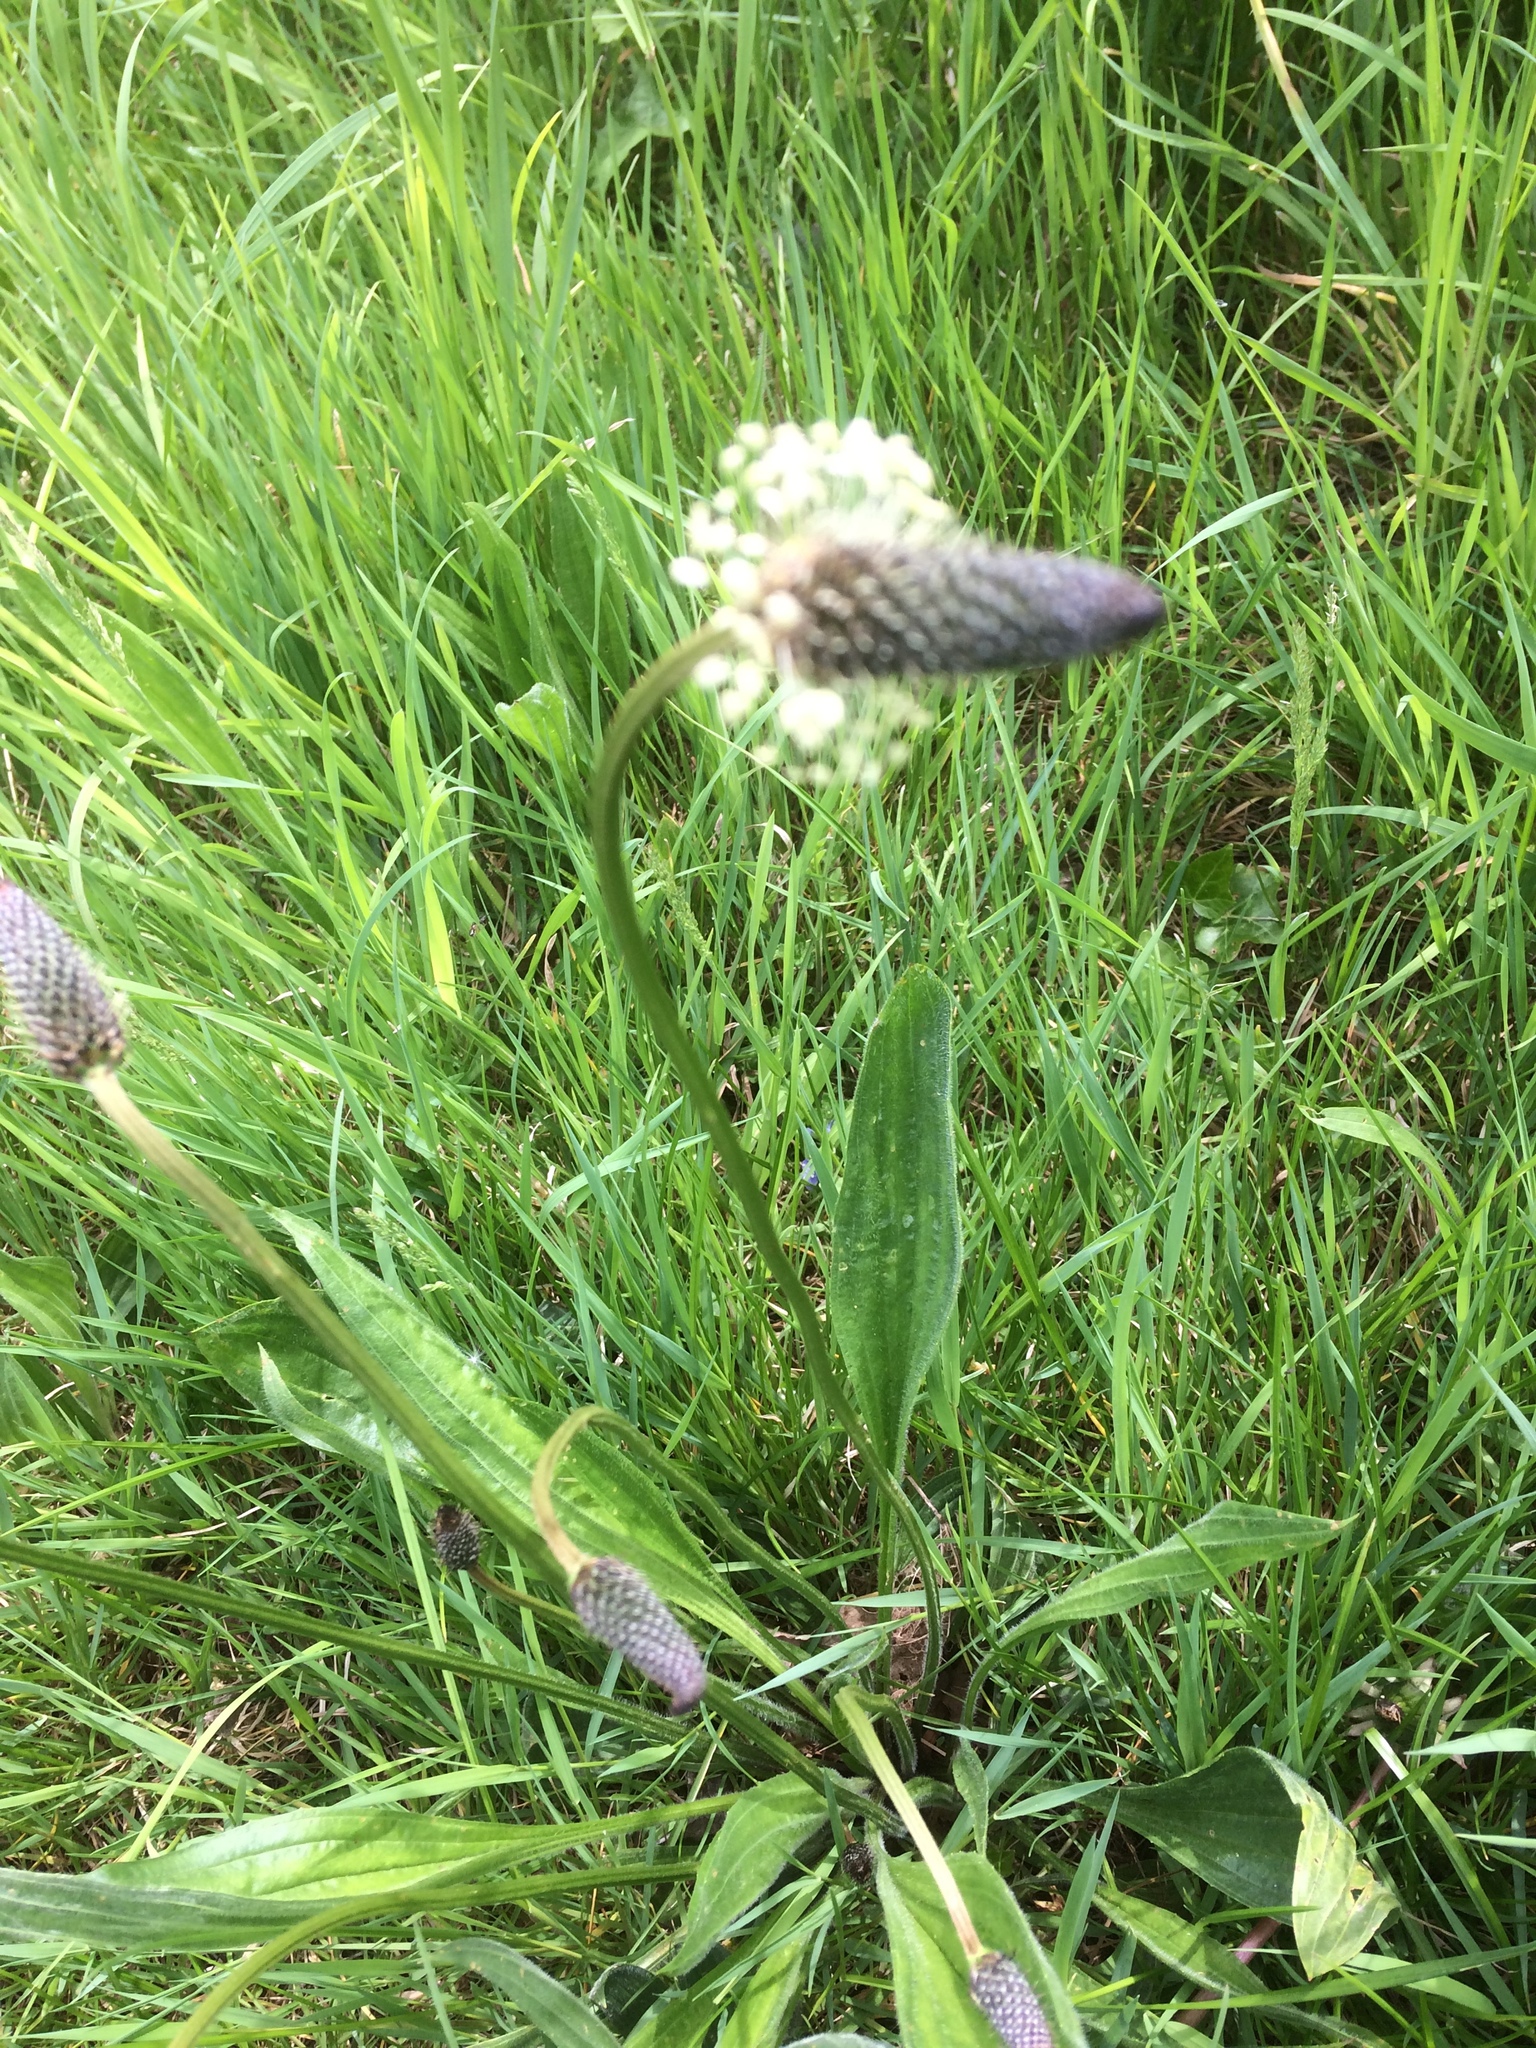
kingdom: Plantae
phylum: Tracheophyta
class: Magnoliopsida
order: Lamiales
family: Plantaginaceae
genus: Plantago
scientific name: Plantago lanceolata
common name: Ribwort plantain
